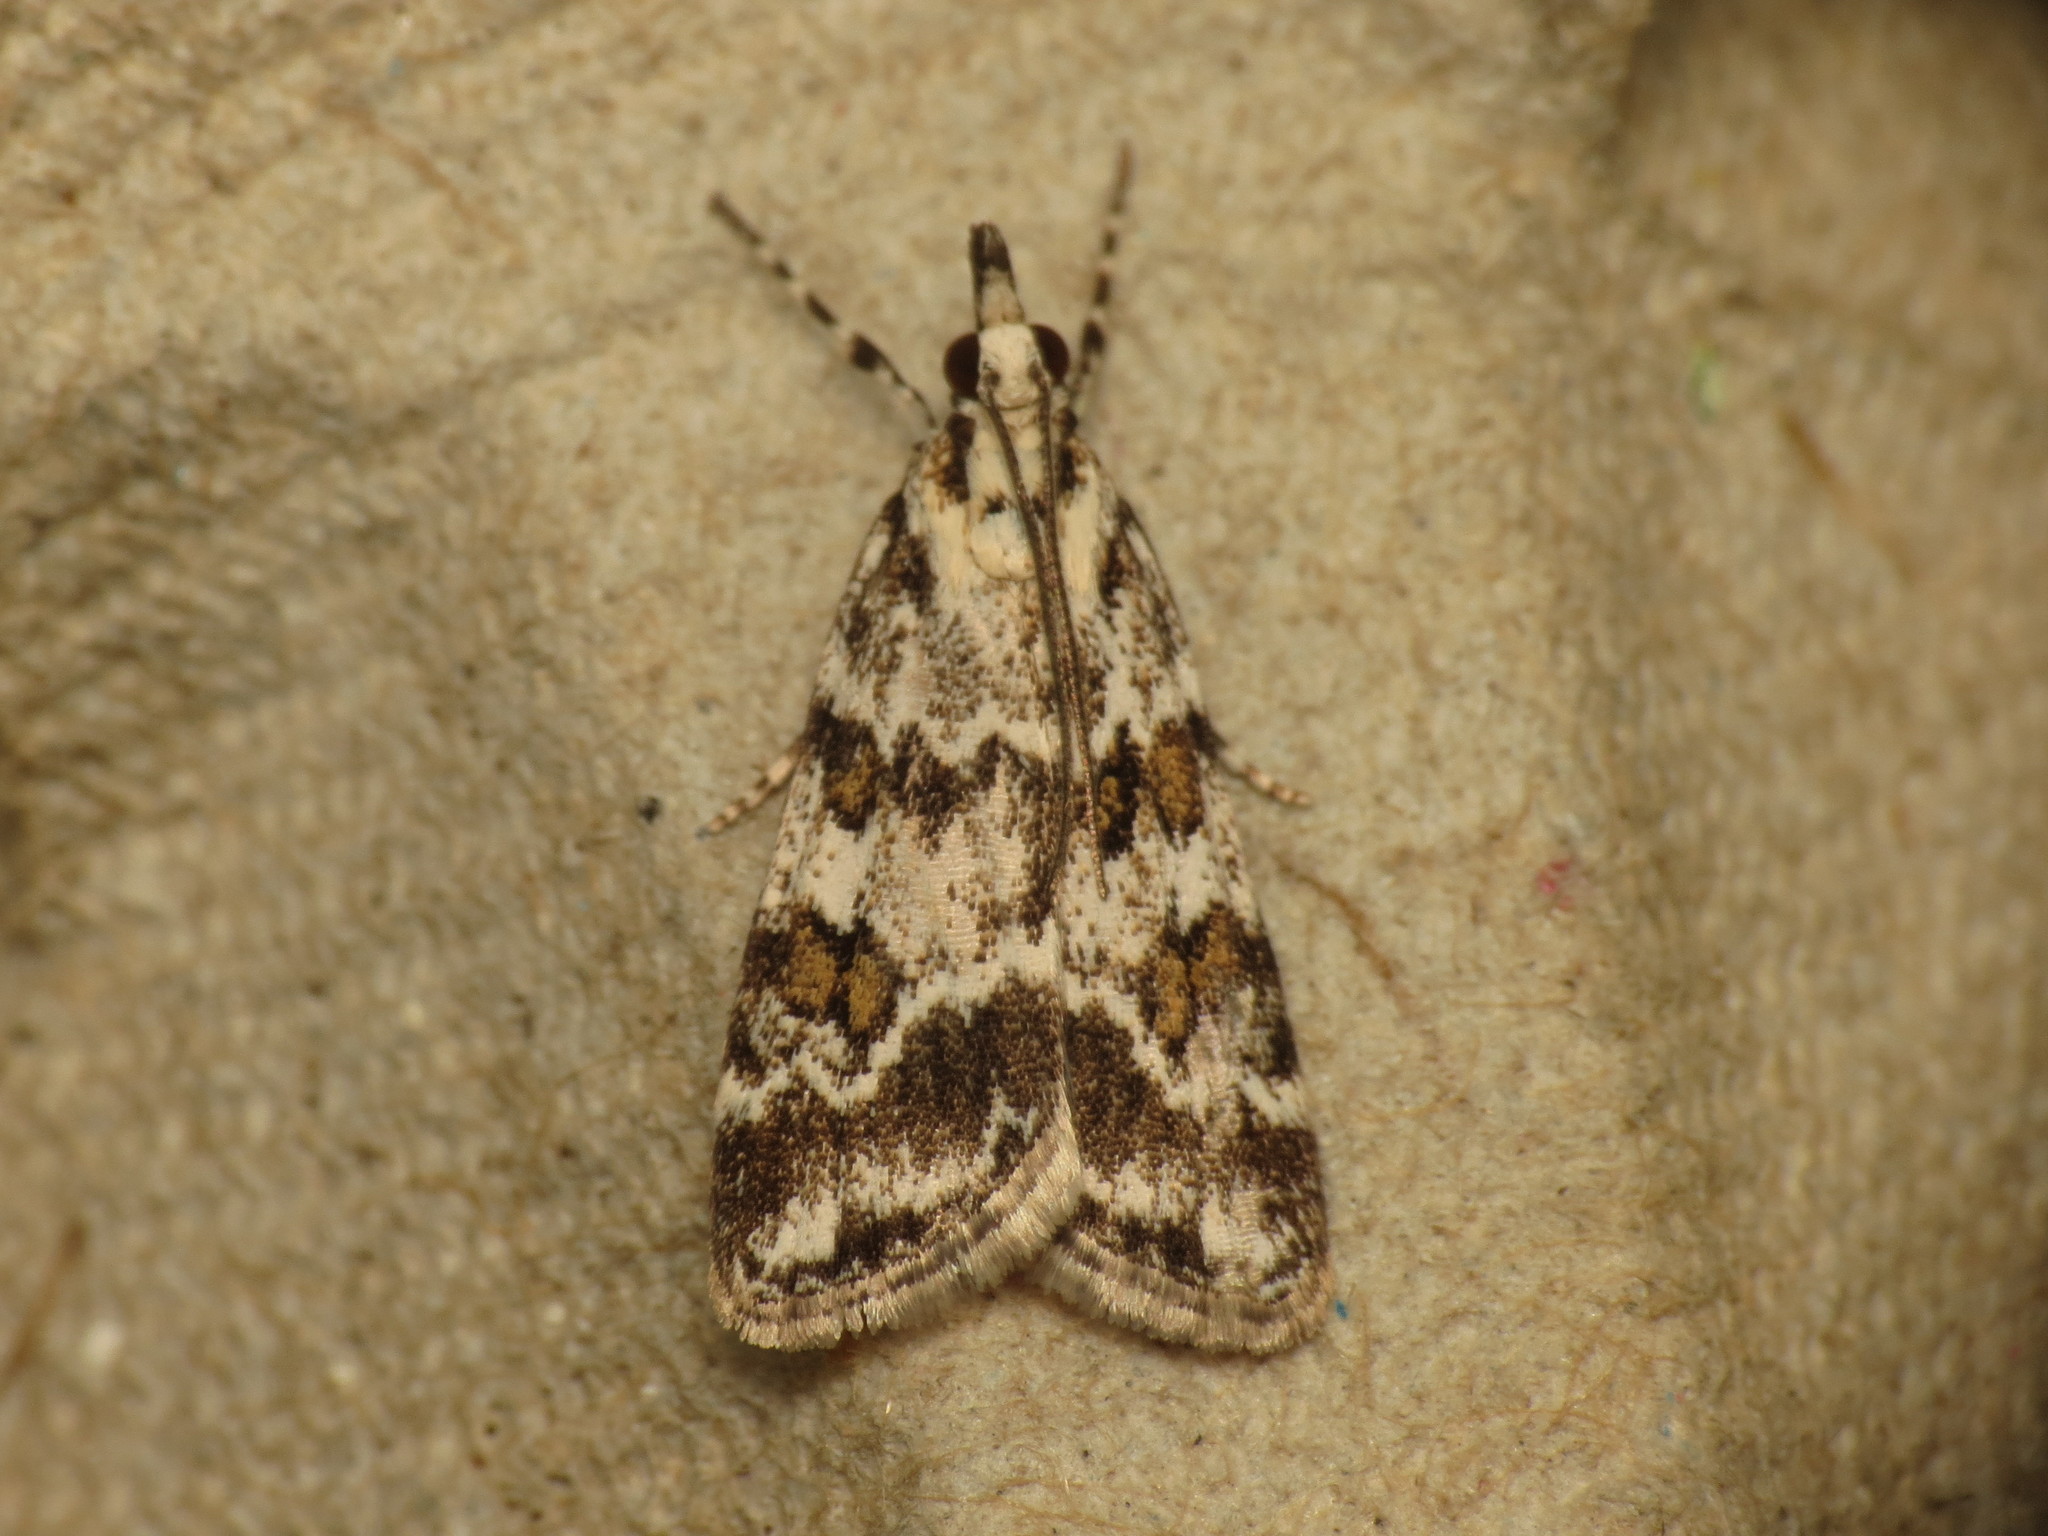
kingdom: Animalia
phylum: Arthropoda
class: Insecta
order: Lepidoptera
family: Crambidae
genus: Scoparia
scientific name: Scoparia pyralella
